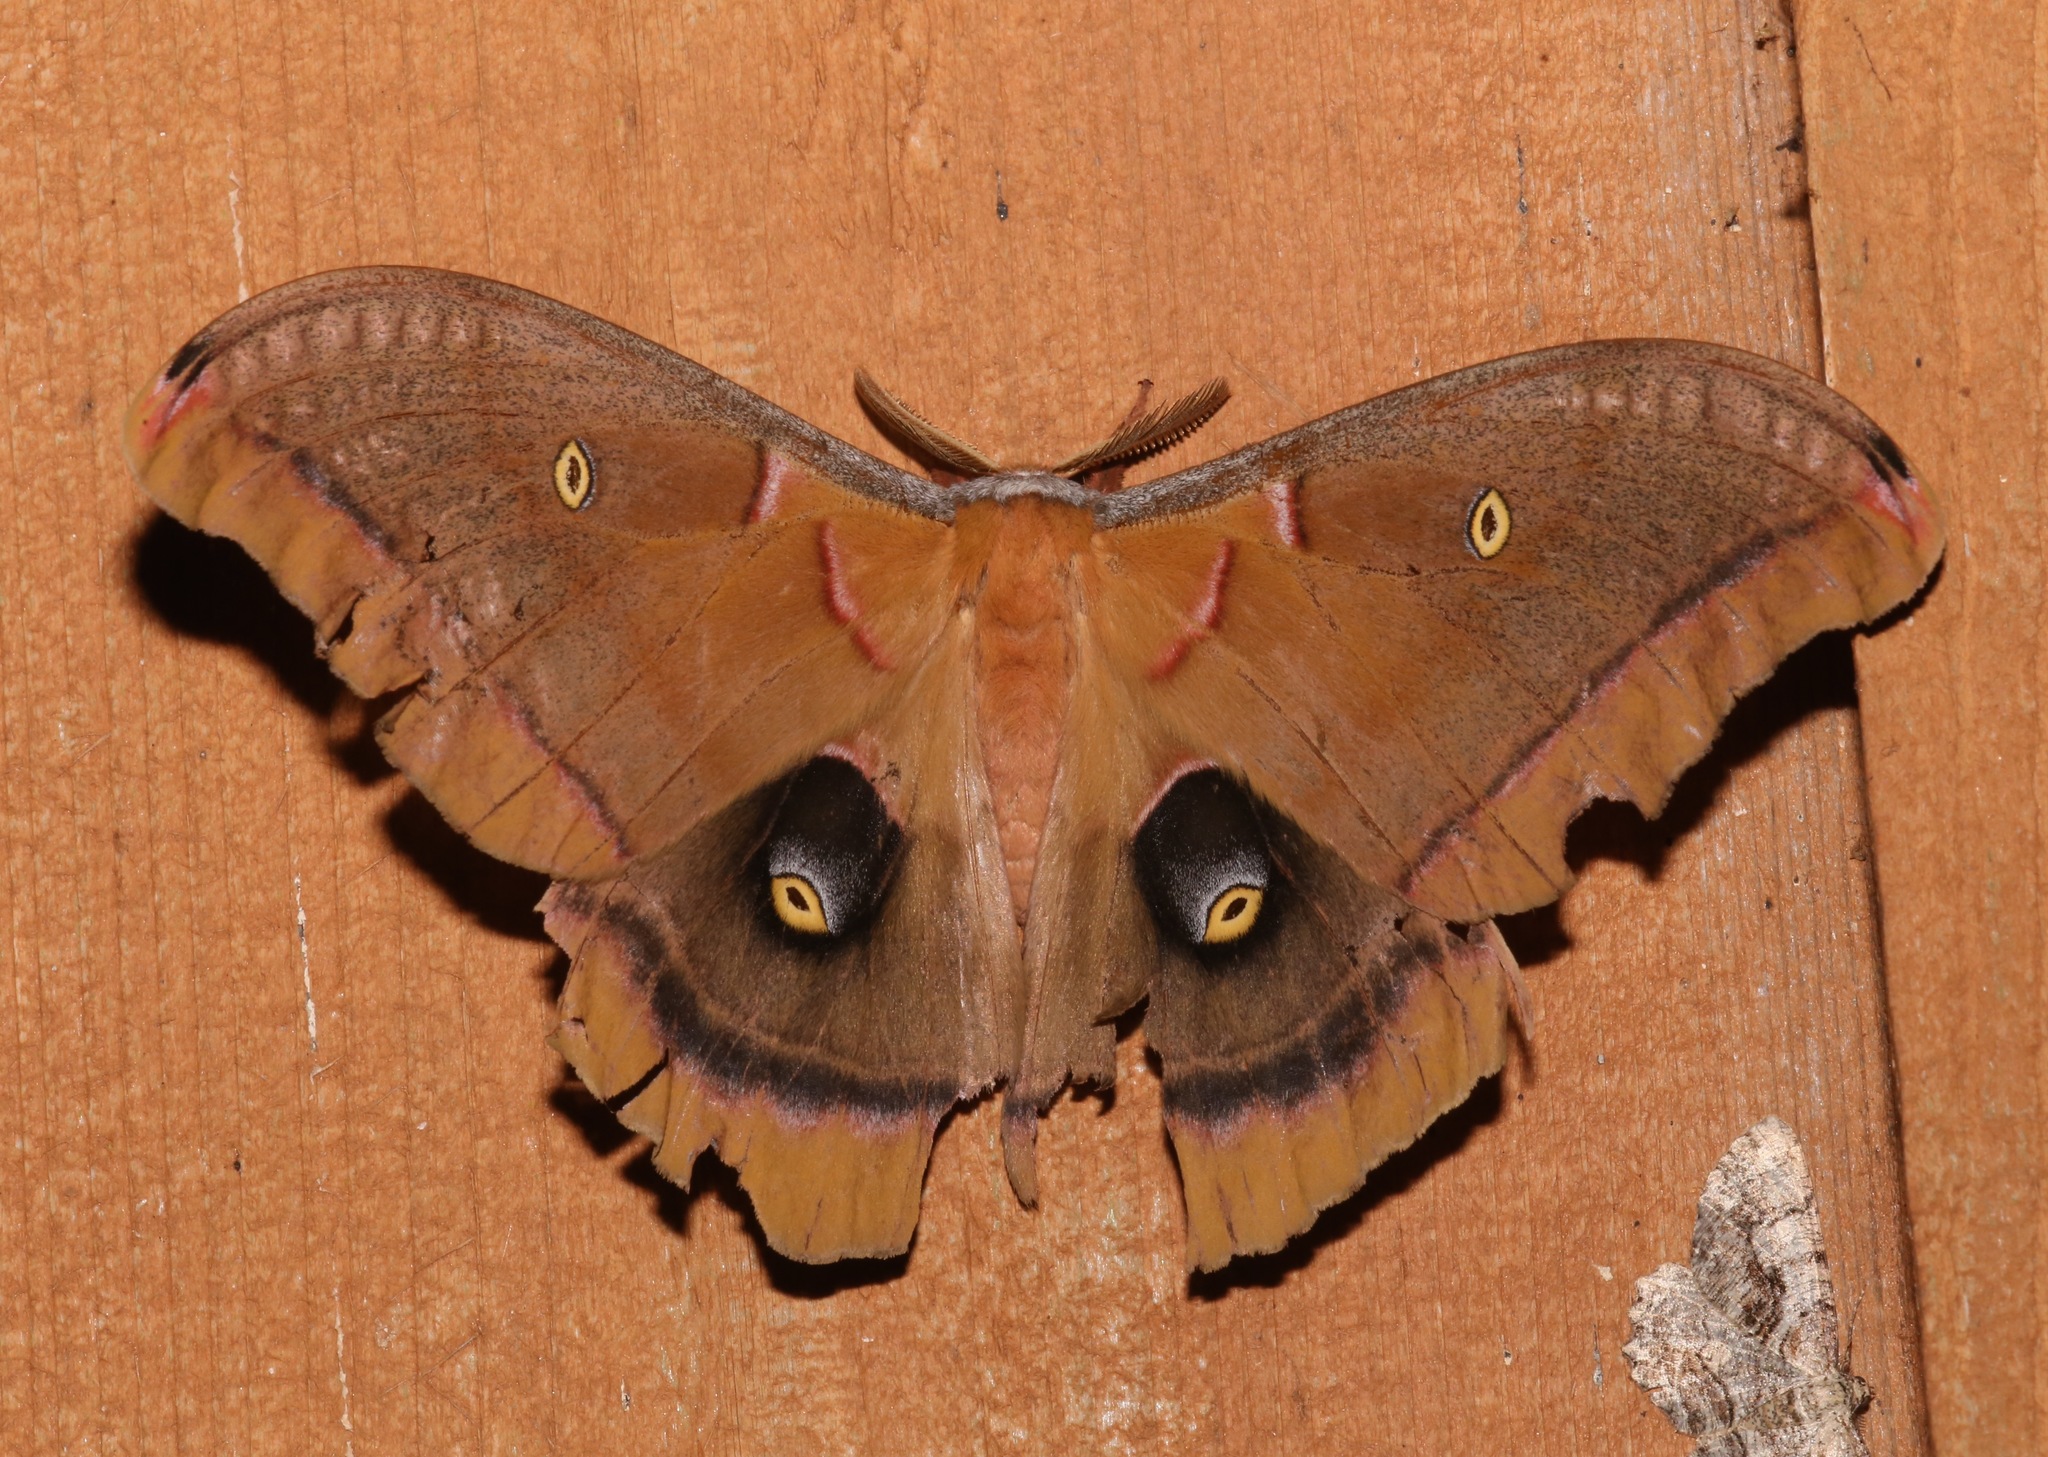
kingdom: Animalia
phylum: Arthropoda
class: Insecta
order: Lepidoptera
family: Saturniidae
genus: Antheraea
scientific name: Antheraea polyphemus
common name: Polyphemus moth
